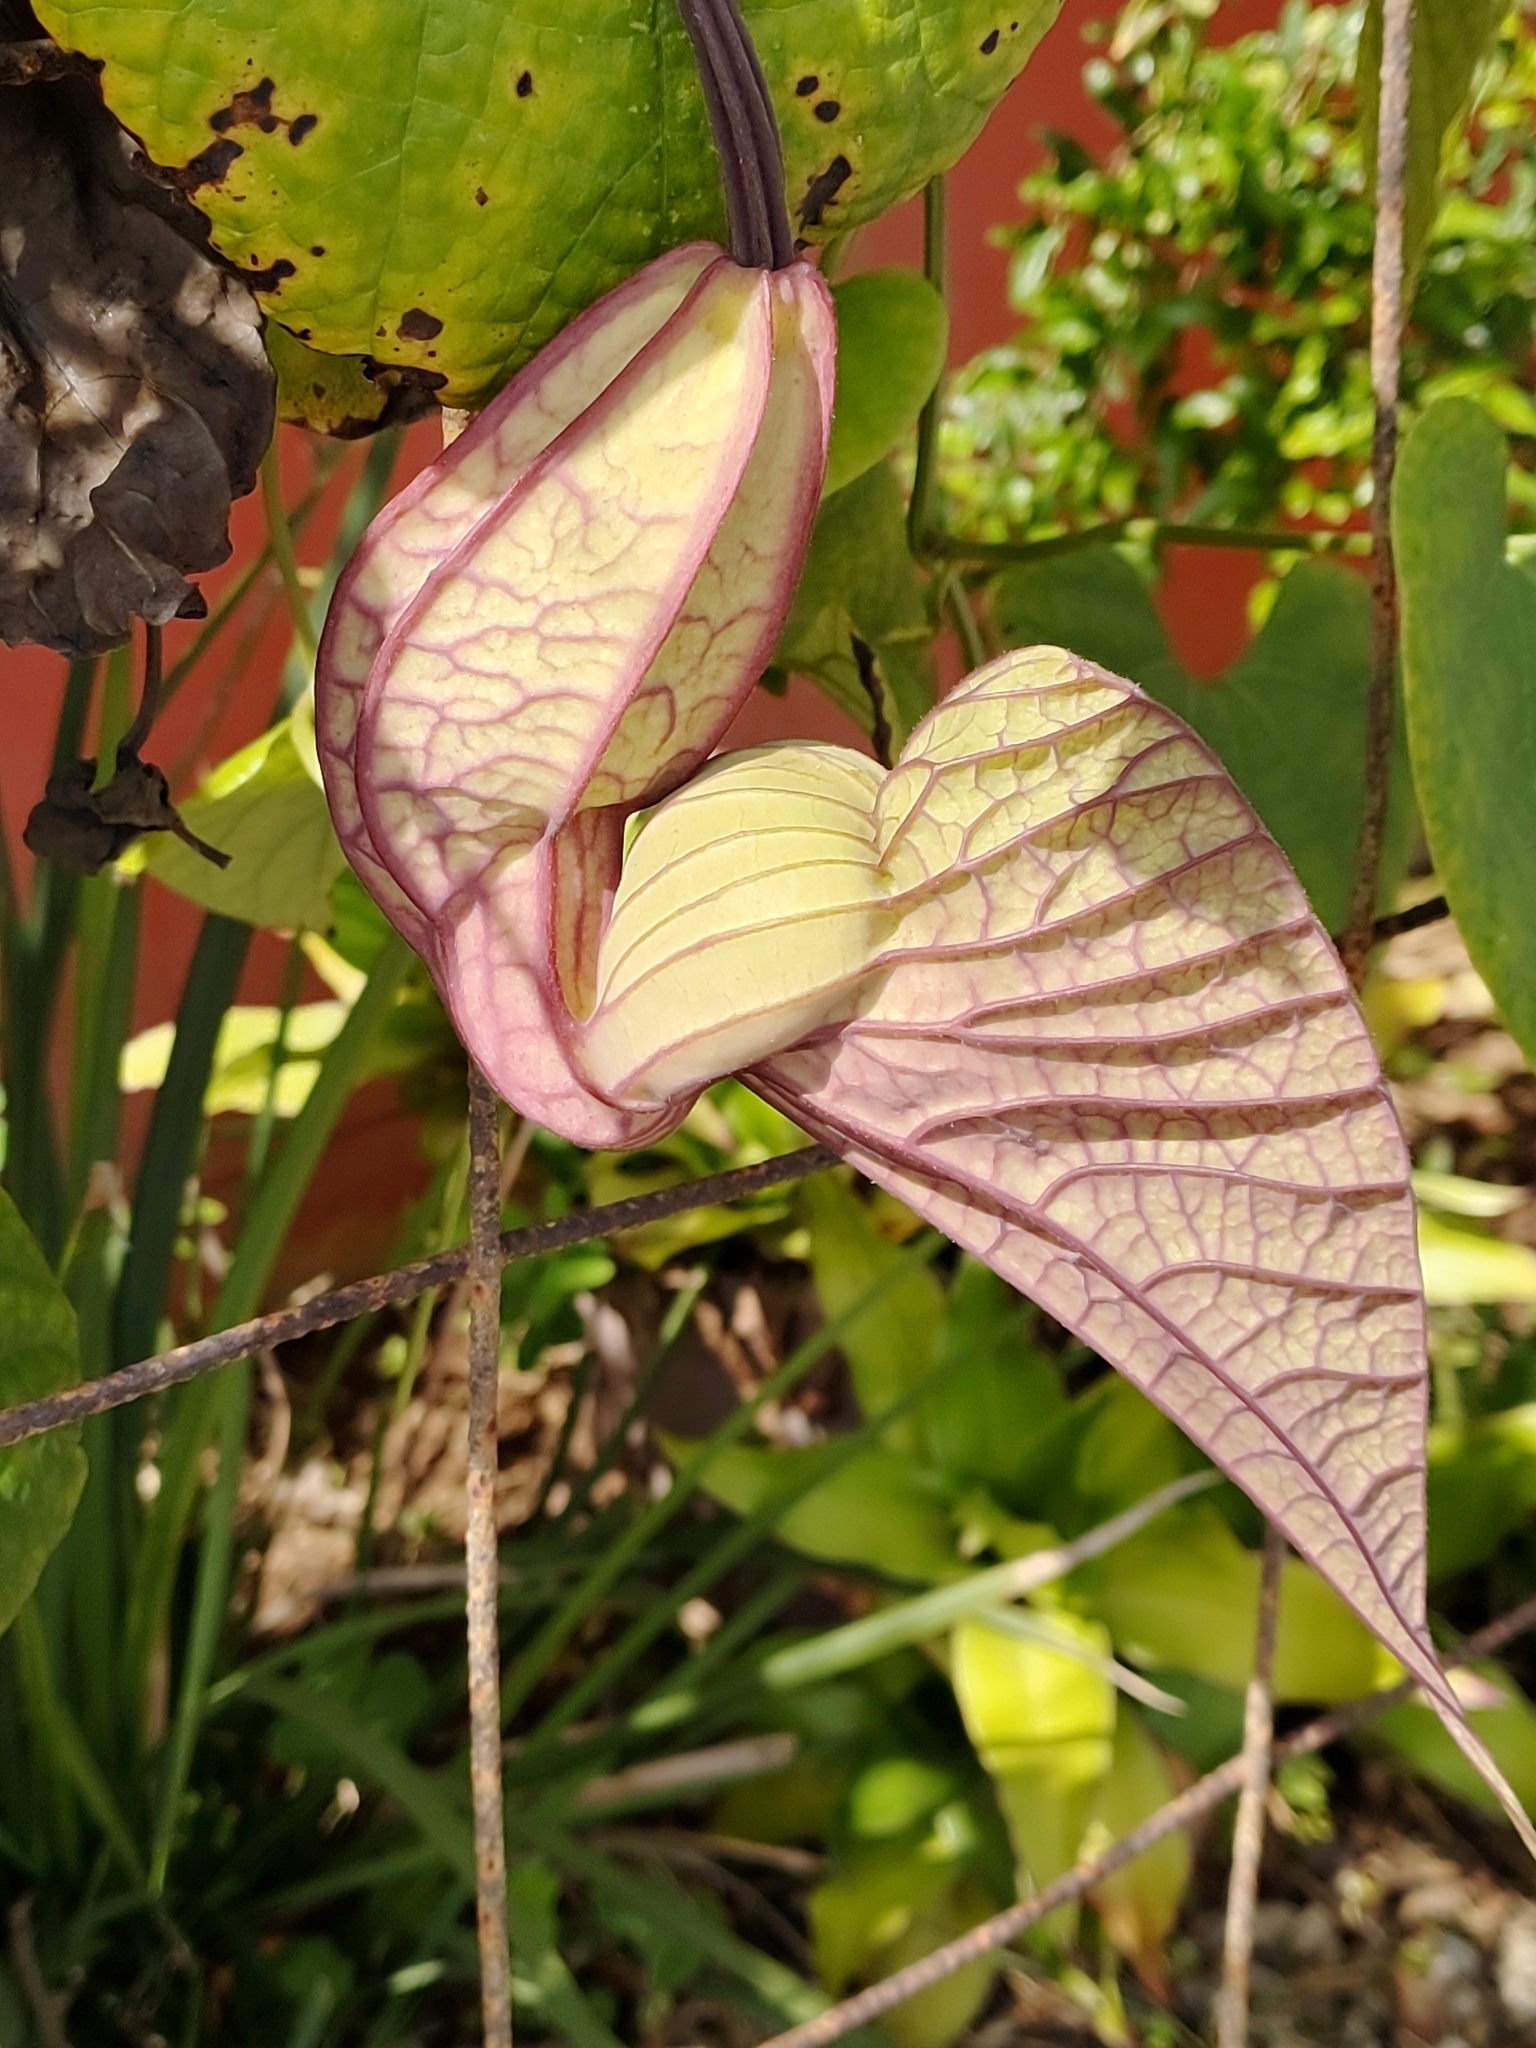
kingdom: Plantae
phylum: Tracheophyta
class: Magnoliopsida
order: Piperales
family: Aristolochiaceae
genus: Aristolochia
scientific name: Aristolochia grandiflora
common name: Pelicanflower
